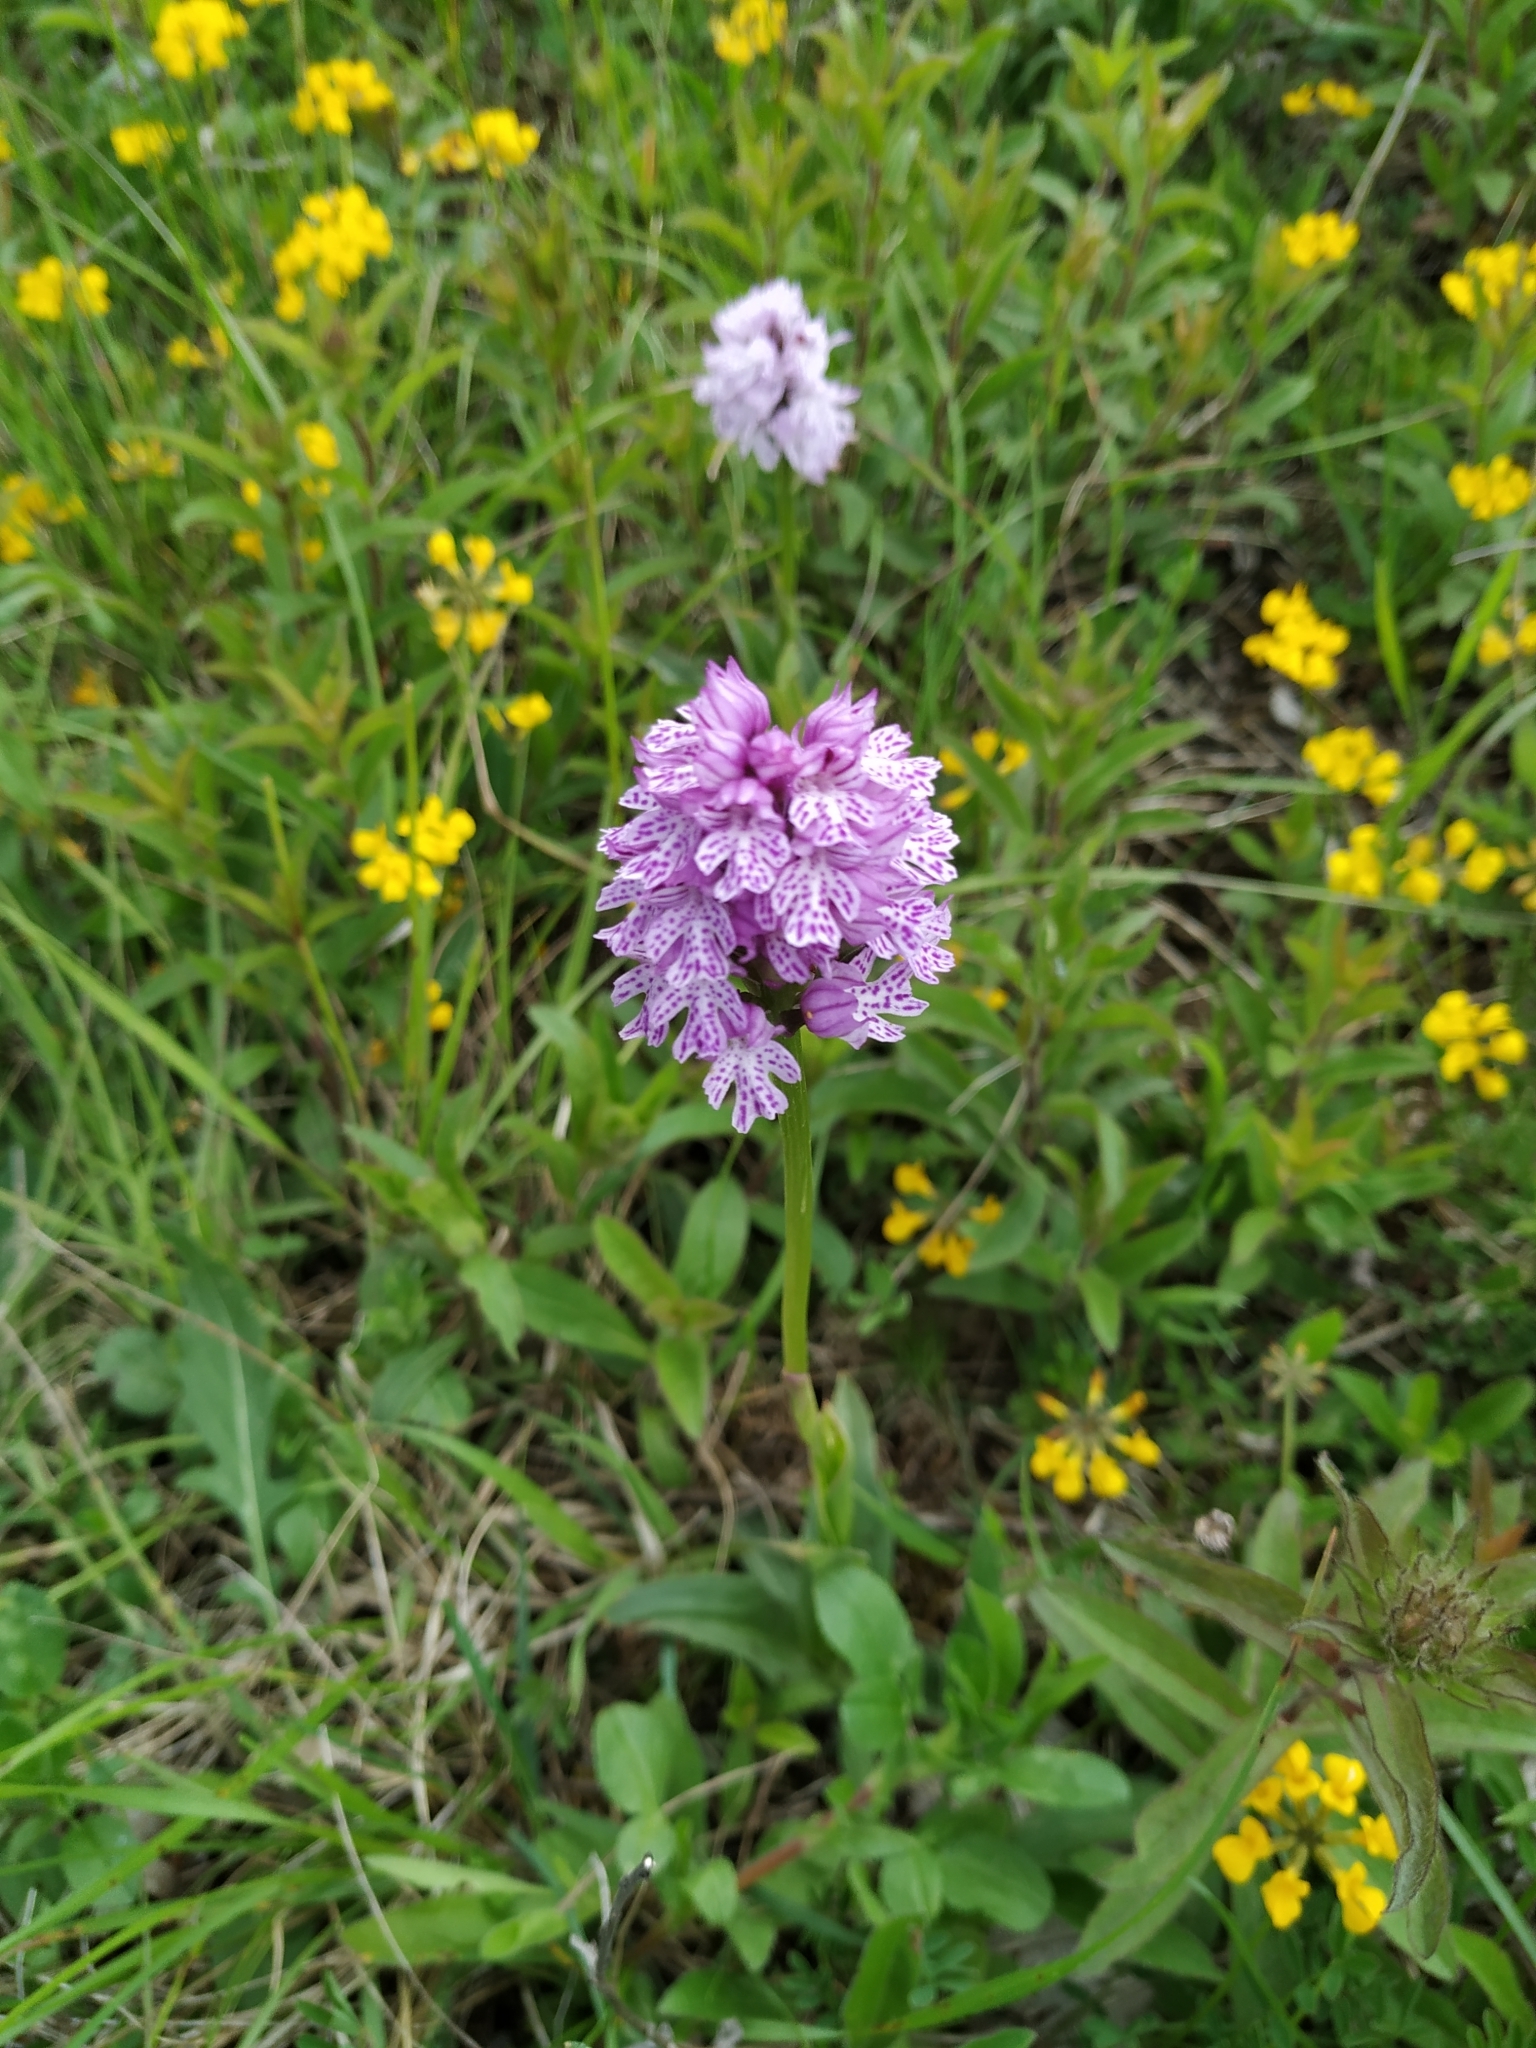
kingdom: Plantae
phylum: Tracheophyta
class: Liliopsida
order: Asparagales
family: Orchidaceae
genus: Neotinea
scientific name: Neotinea tridentata
